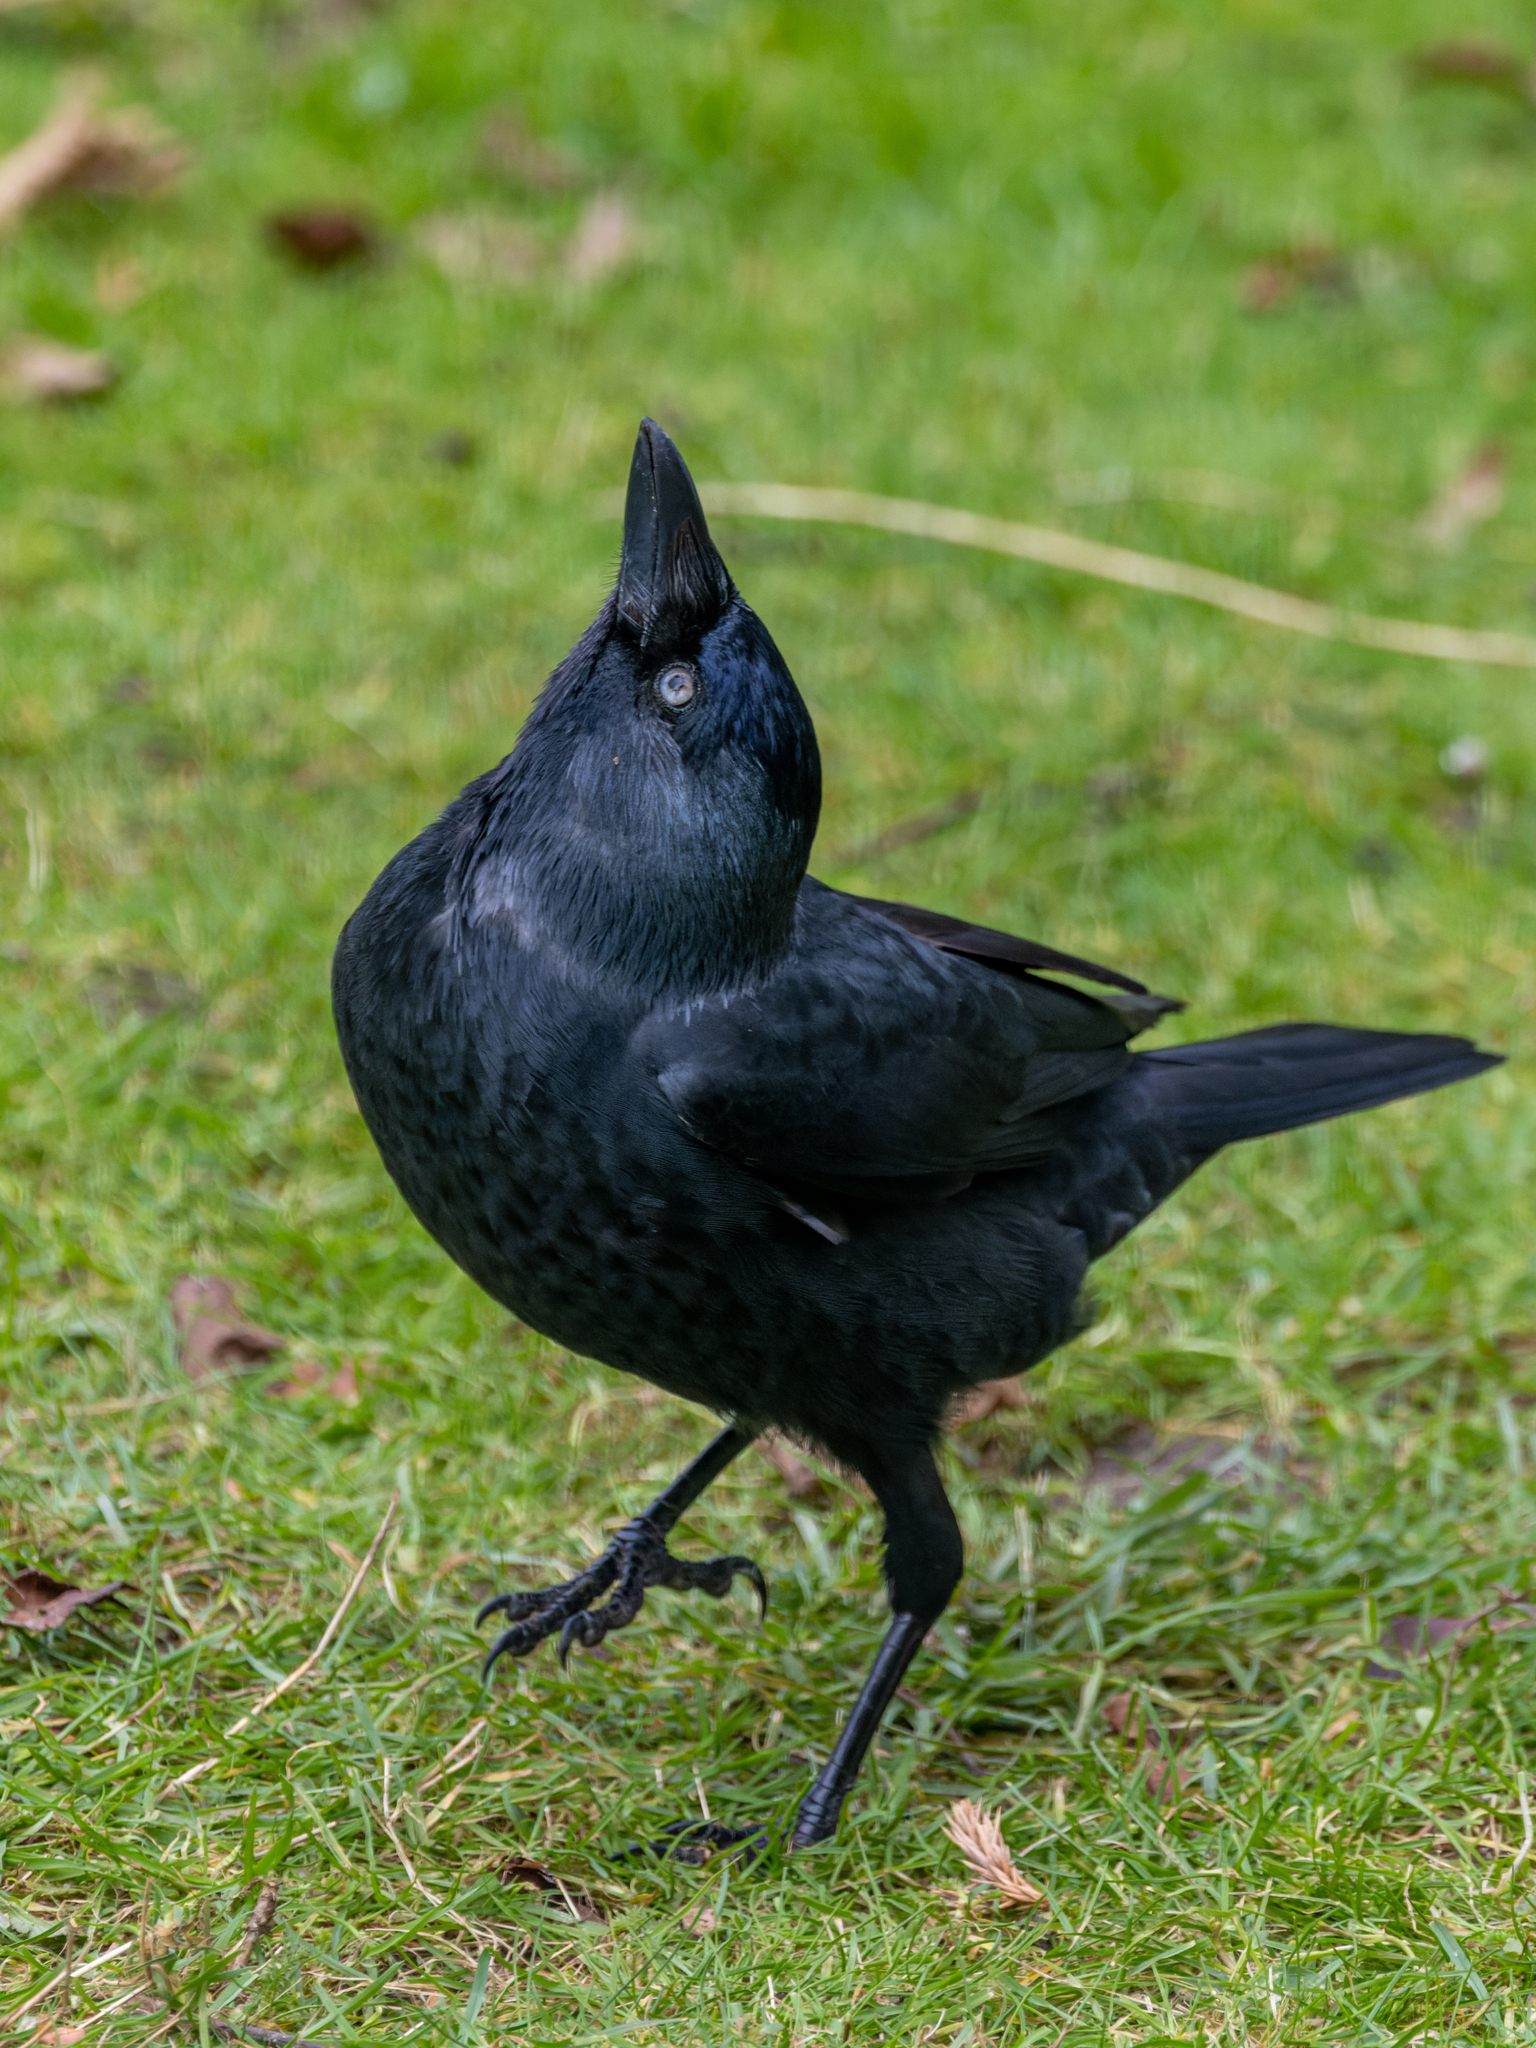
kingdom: Animalia
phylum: Chordata
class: Aves
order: Passeriformes
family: Corvidae
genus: Coloeus
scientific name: Coloeus monedula
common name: Western jackdaw
